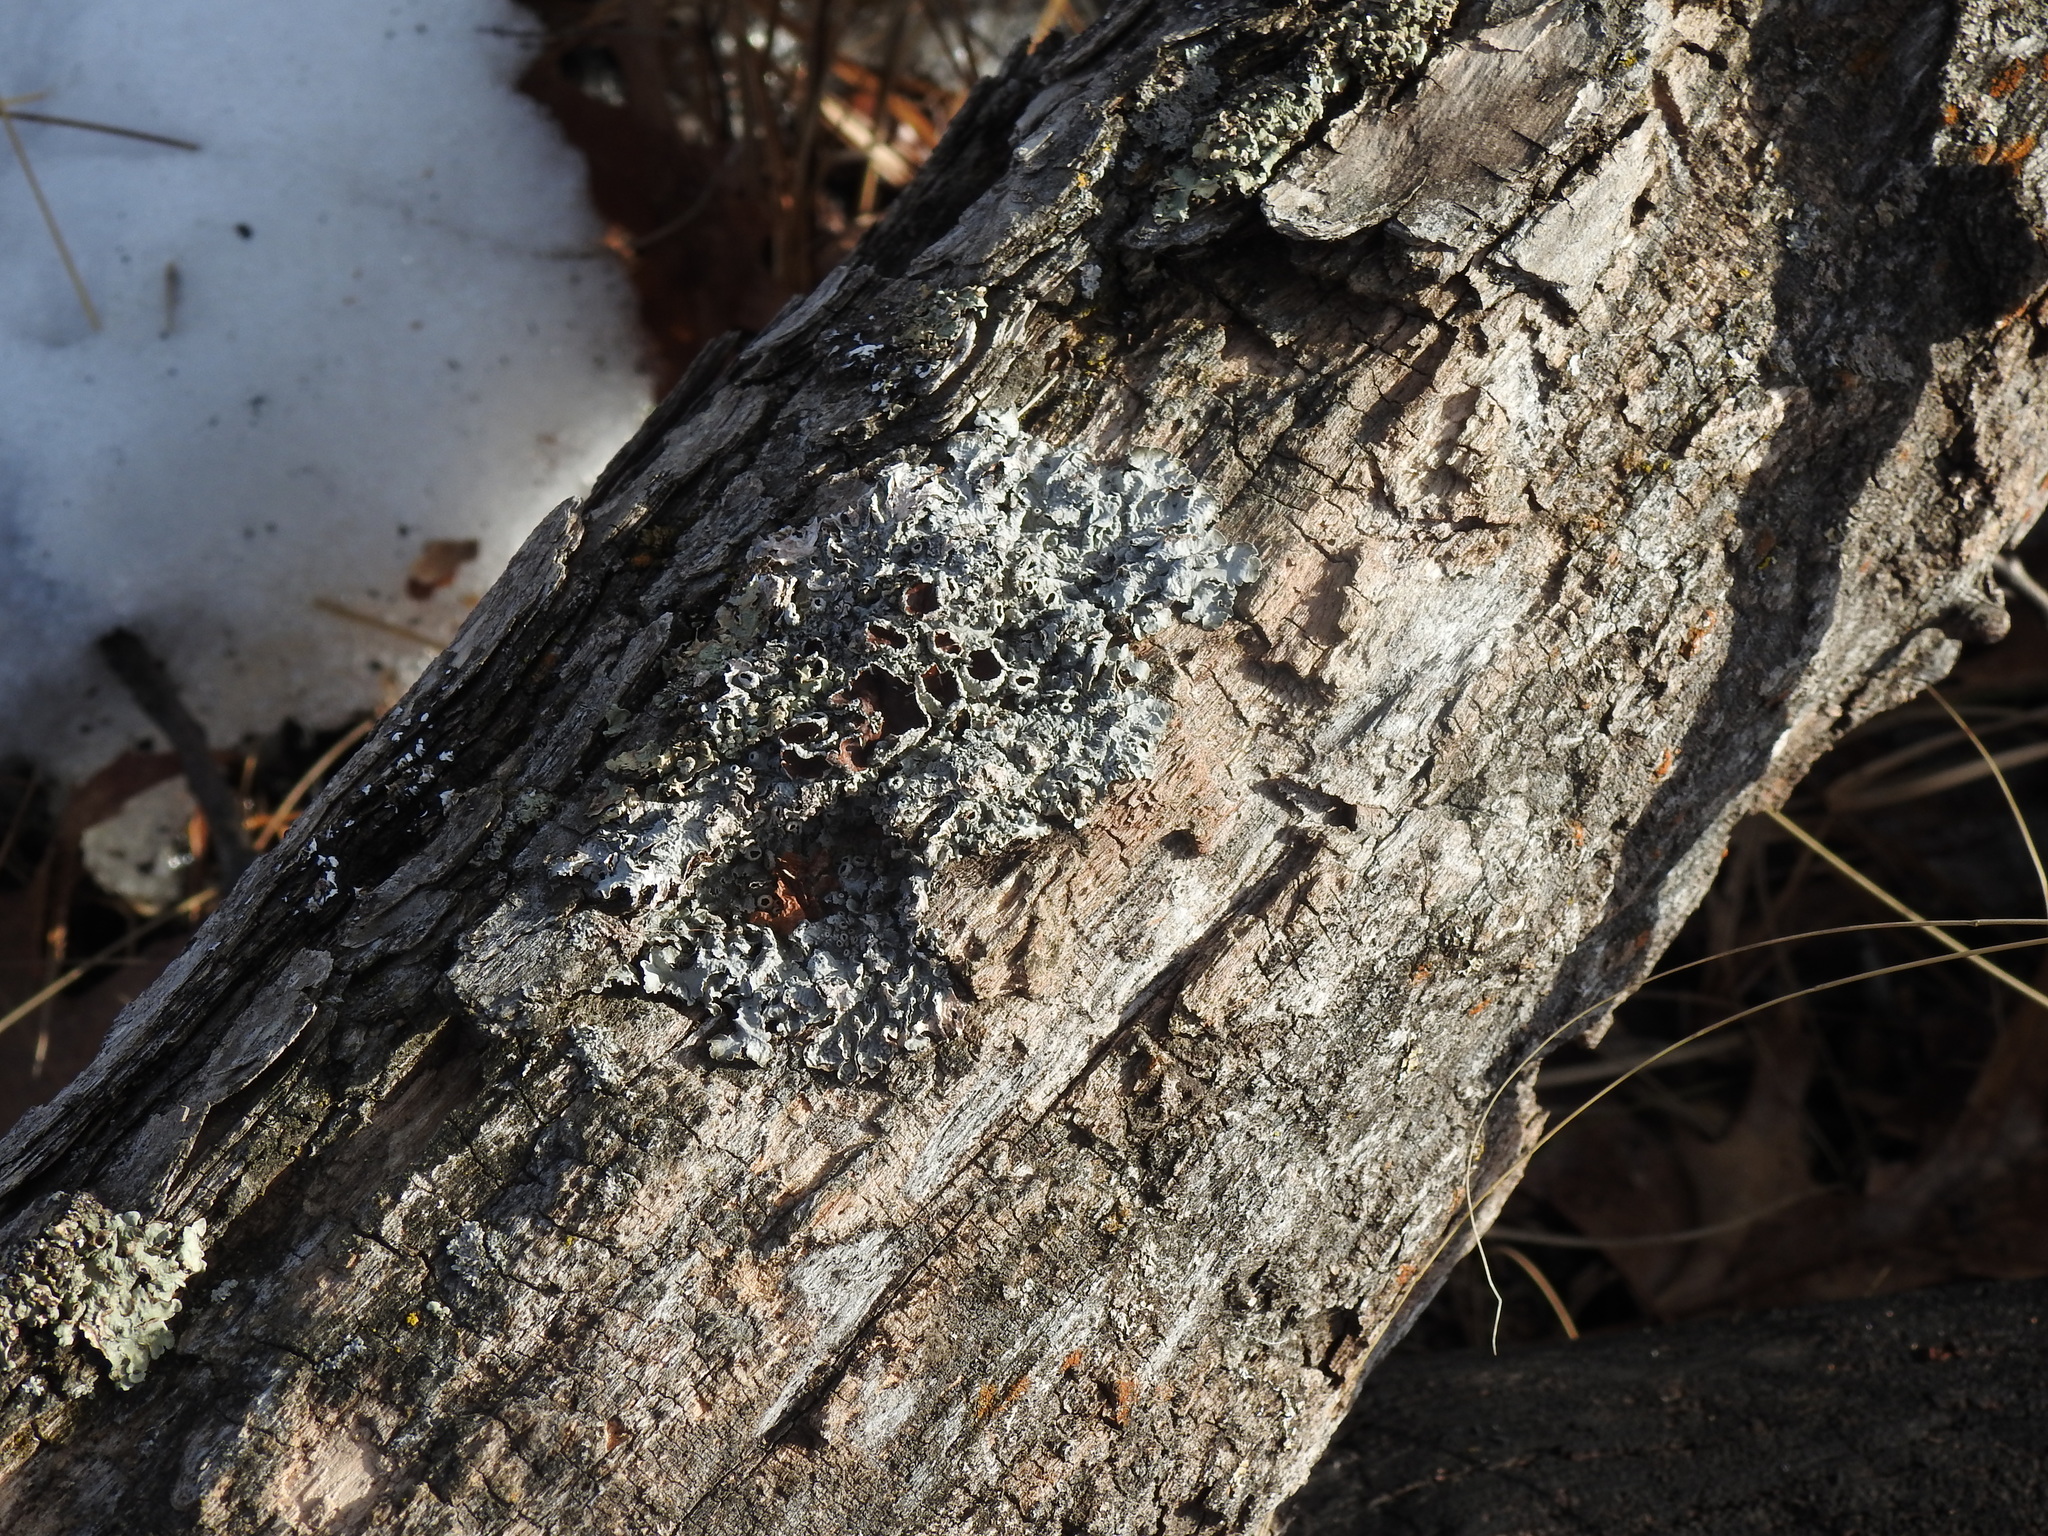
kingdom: Fungi
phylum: Ascomycota
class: Lecanoromycetes
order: Lecanorales
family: Parmeliaceae
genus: Punctelia
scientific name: Punctelia bolliana
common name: Eastern speckled shield lichen
